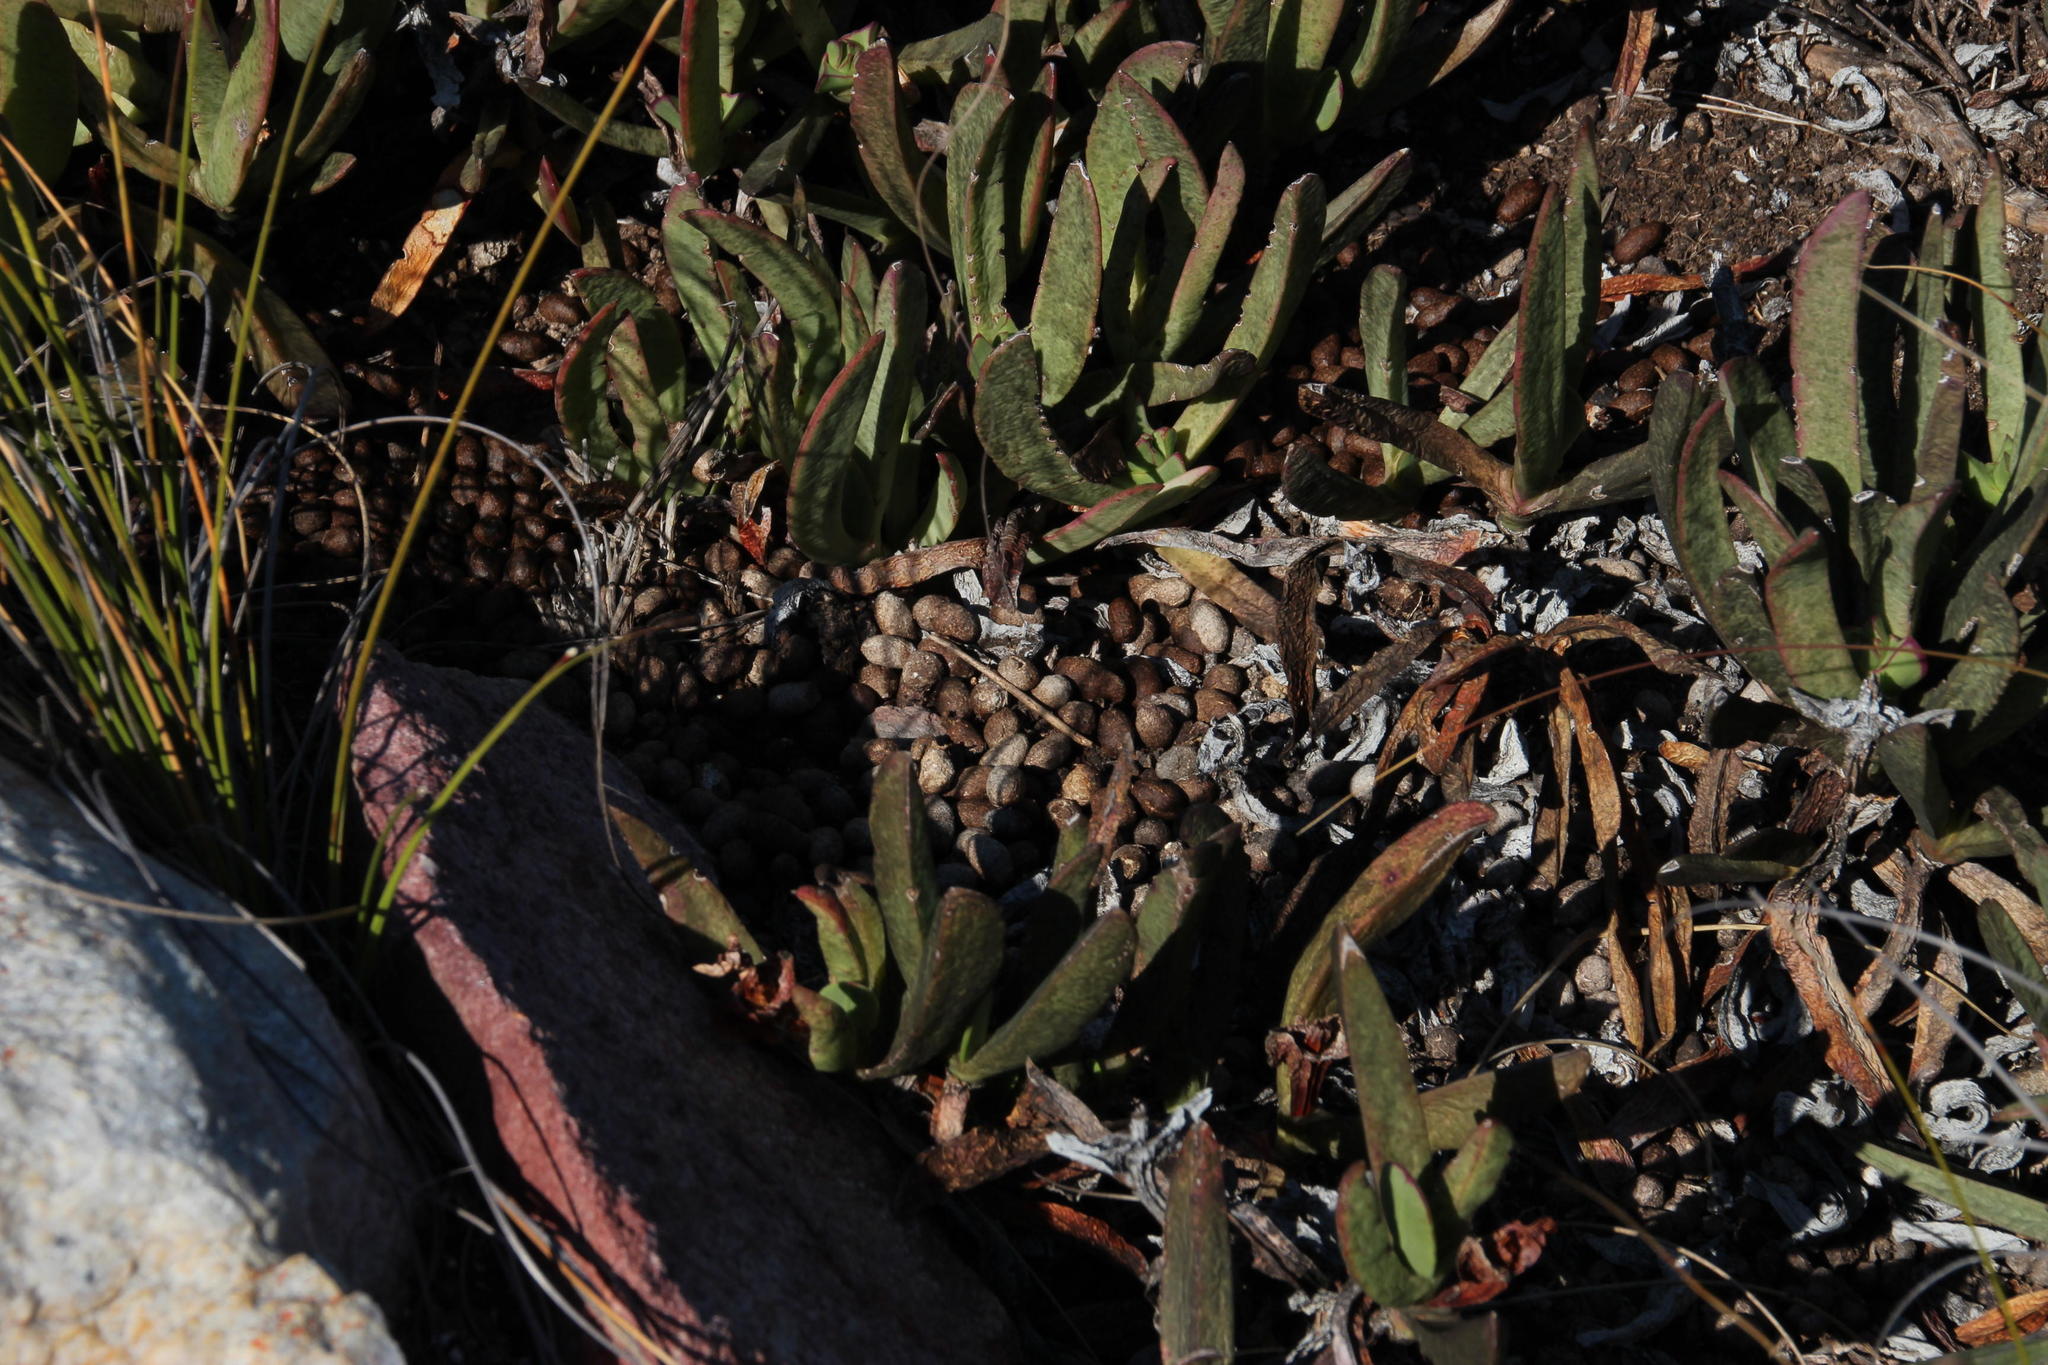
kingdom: Animalia
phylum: Chordata
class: Mammalia
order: Artiodactyla
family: Bovidae
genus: Oreotragus
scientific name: Oreotragus oreotragus
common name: Klipspringer
